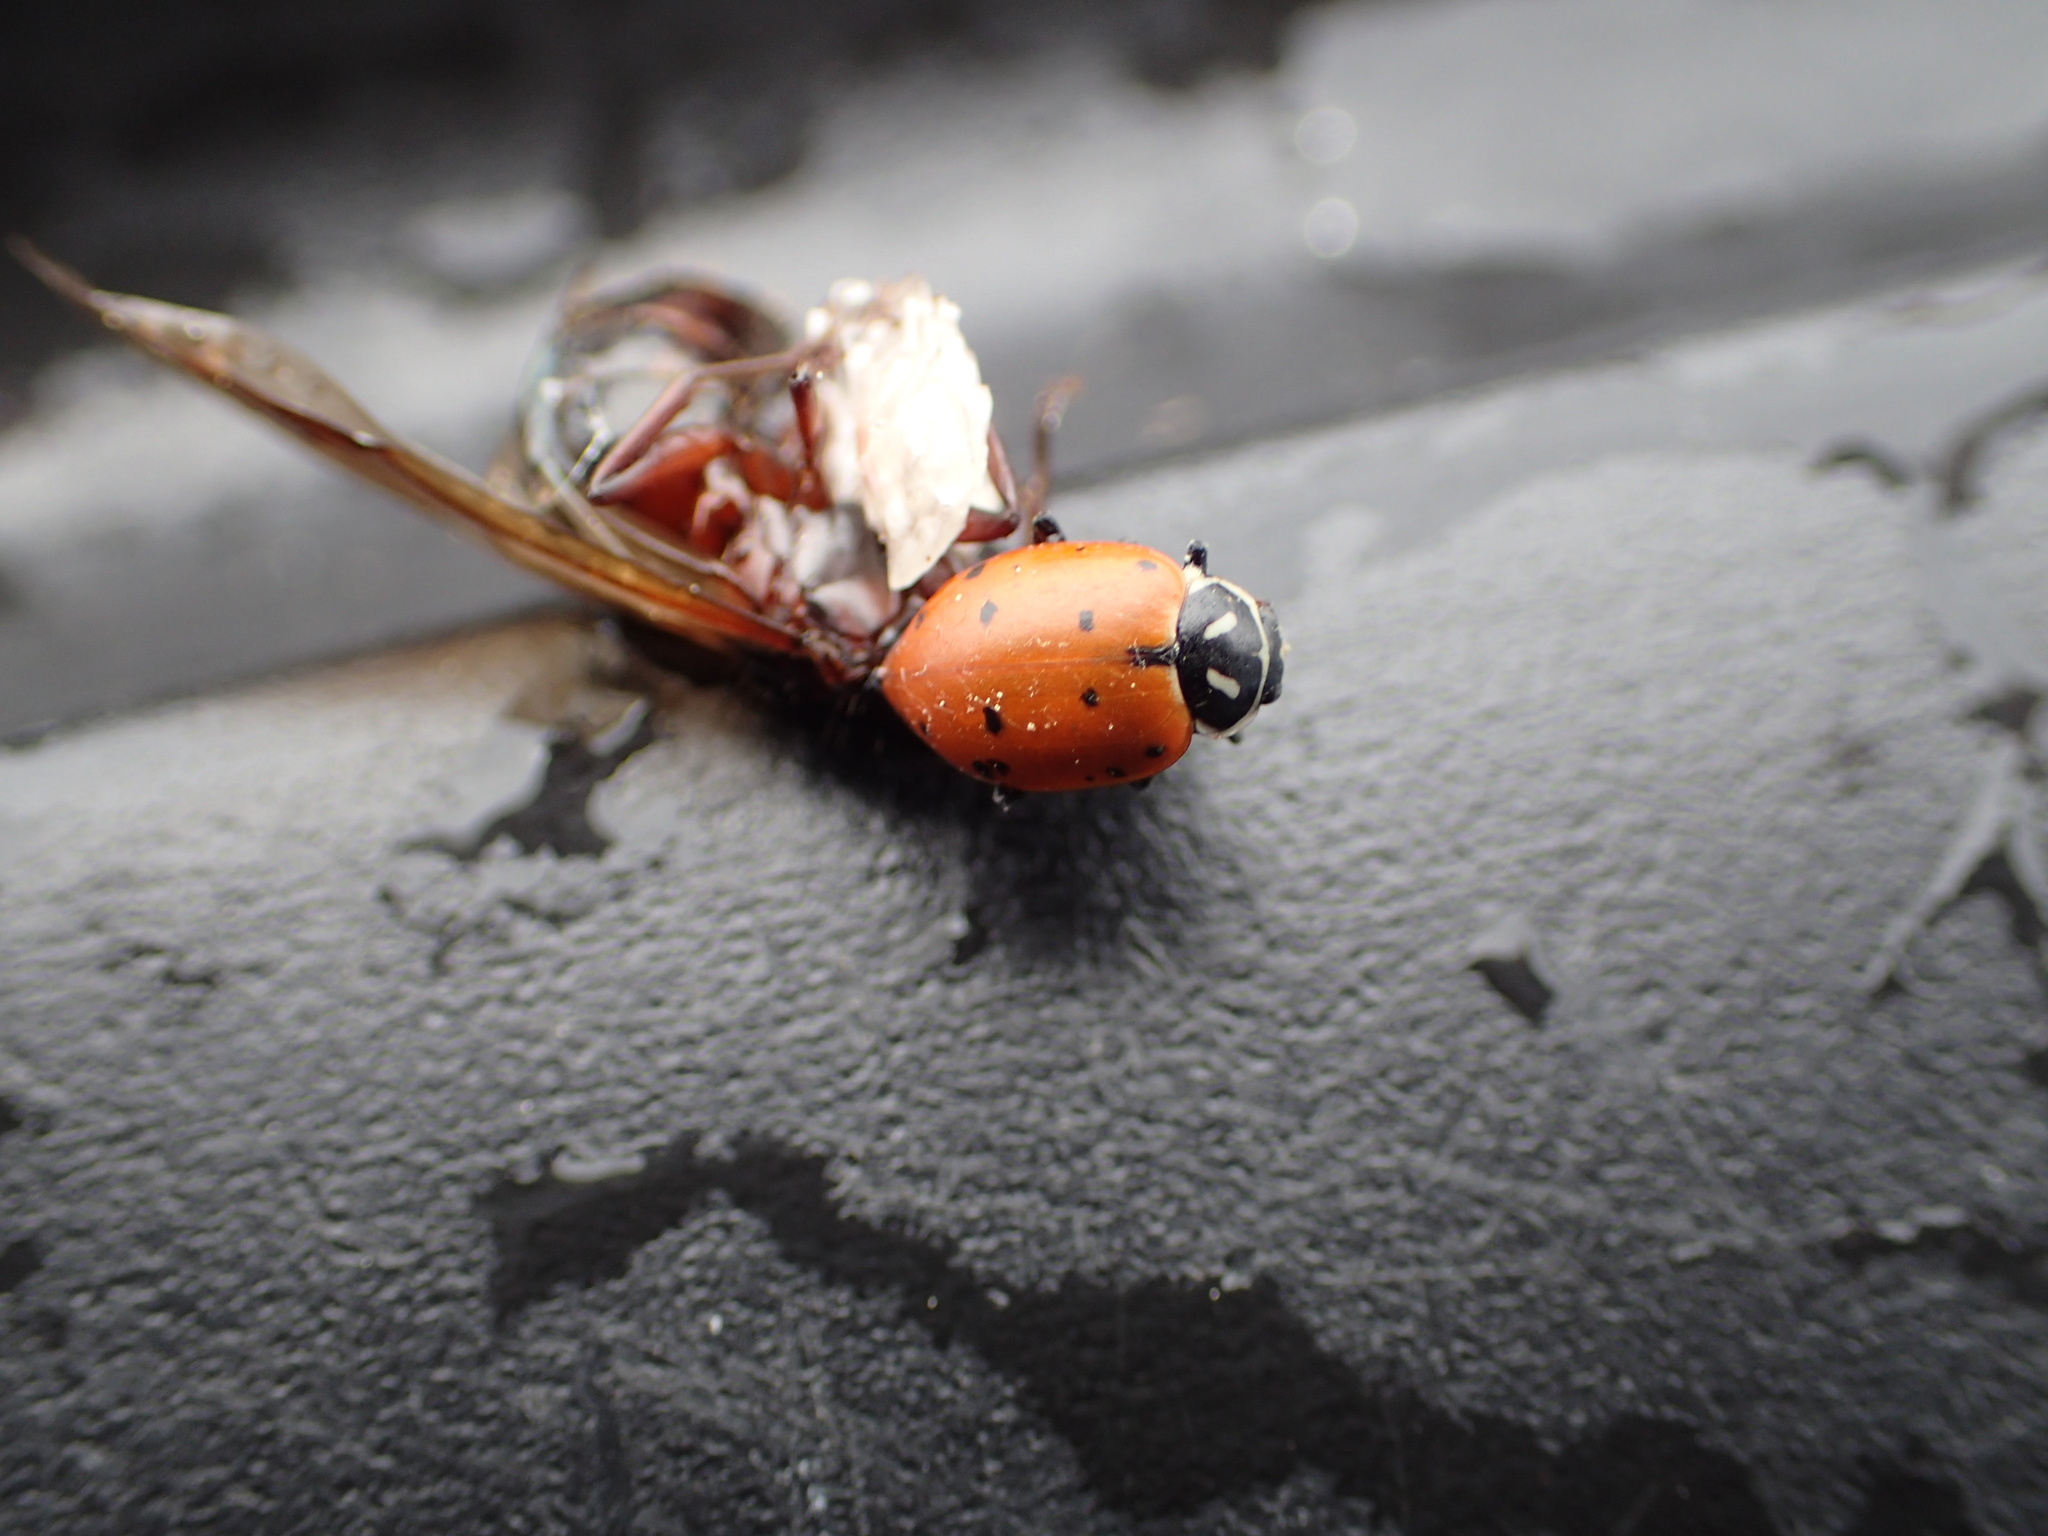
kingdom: Animalia
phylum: Arthropoda
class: Insecta
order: Coleoptera
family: Coccinellidae
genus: Hippodamia
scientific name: Hippodamia convergens
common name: Convergent lady beetle
